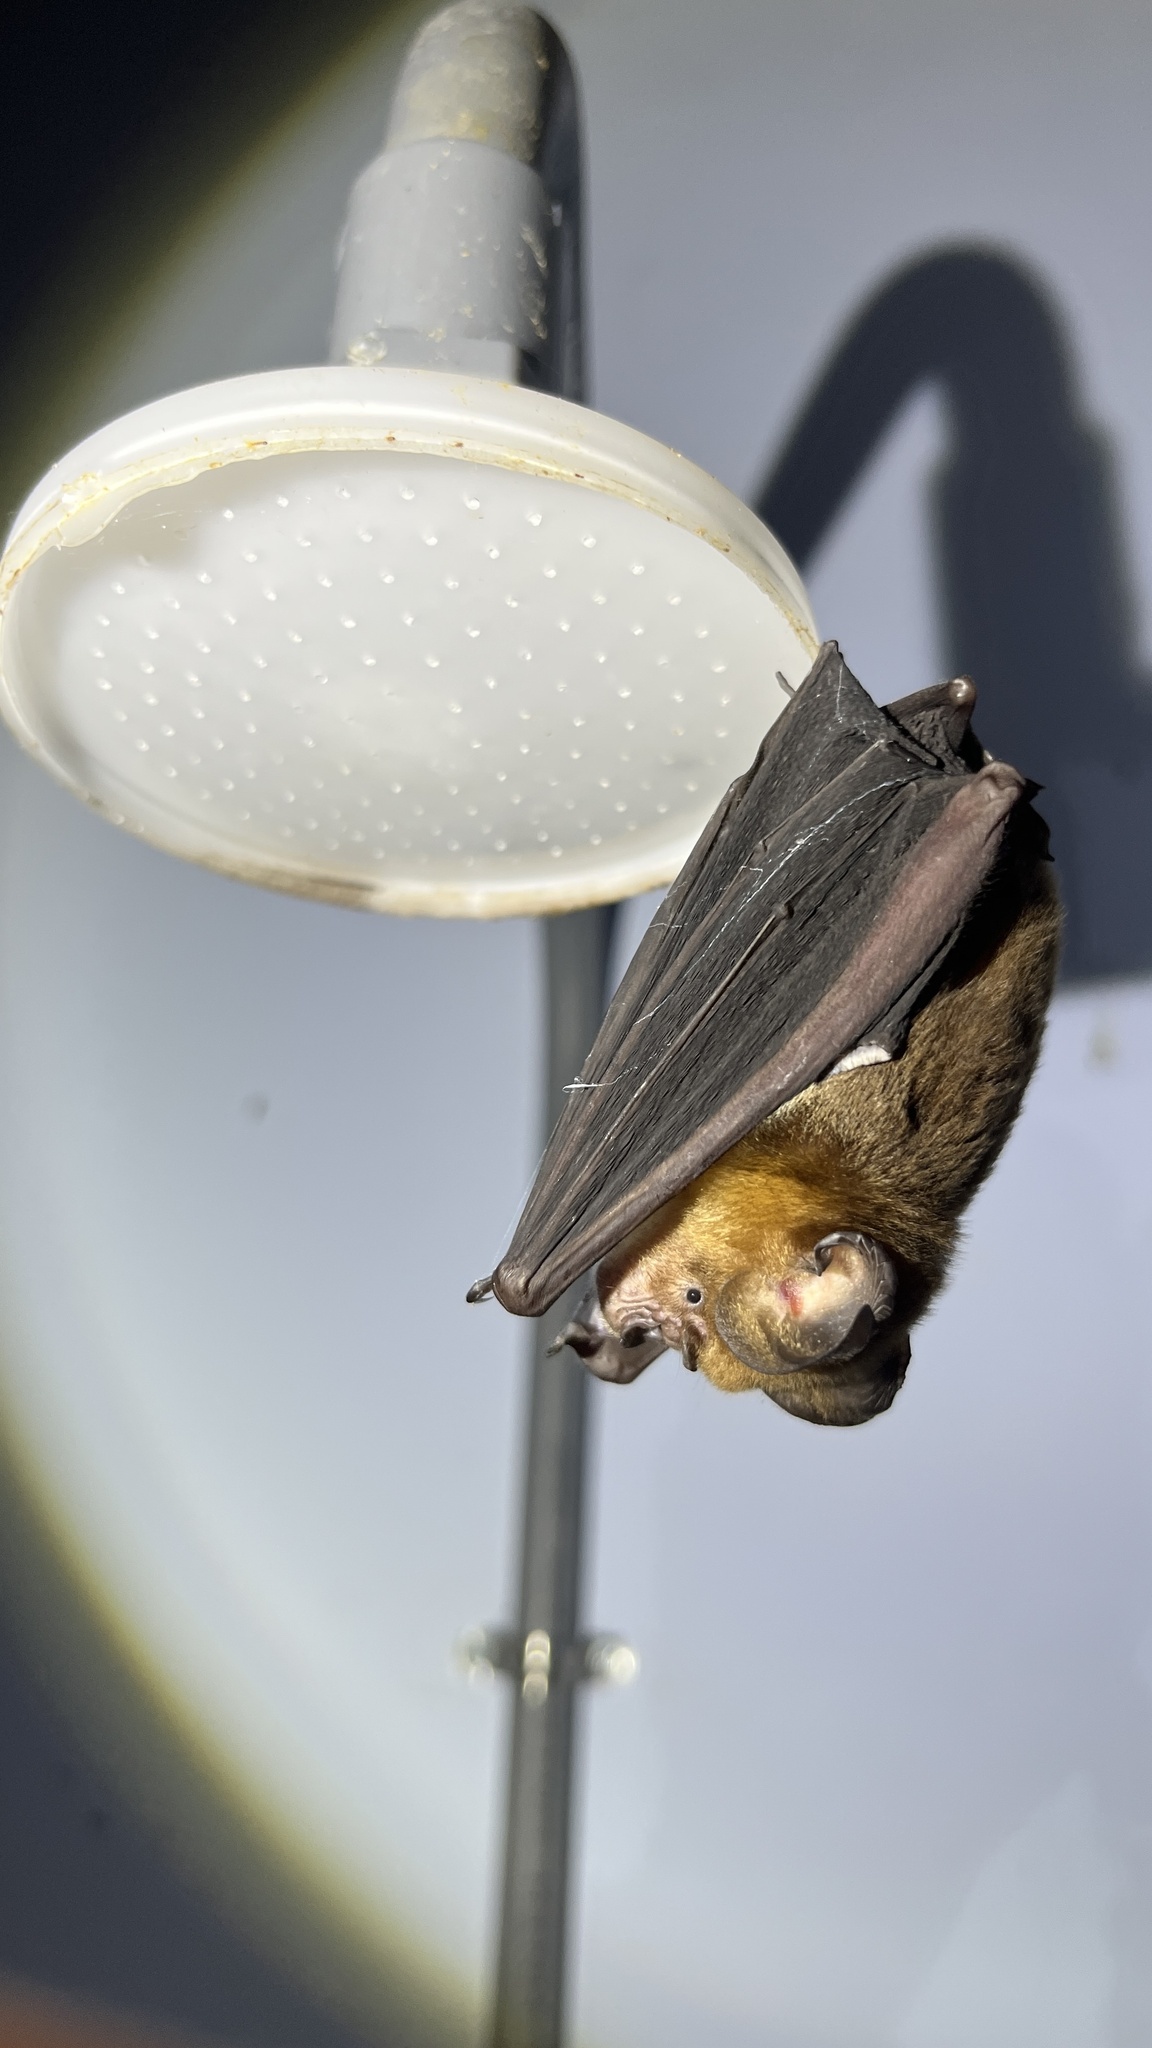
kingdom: Animalia
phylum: Chordata
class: Mammalia
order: Chiroptera
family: Hipposideridae
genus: Hipposideros
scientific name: Hipposideros grandis
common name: Grand leaf-nosed bat
